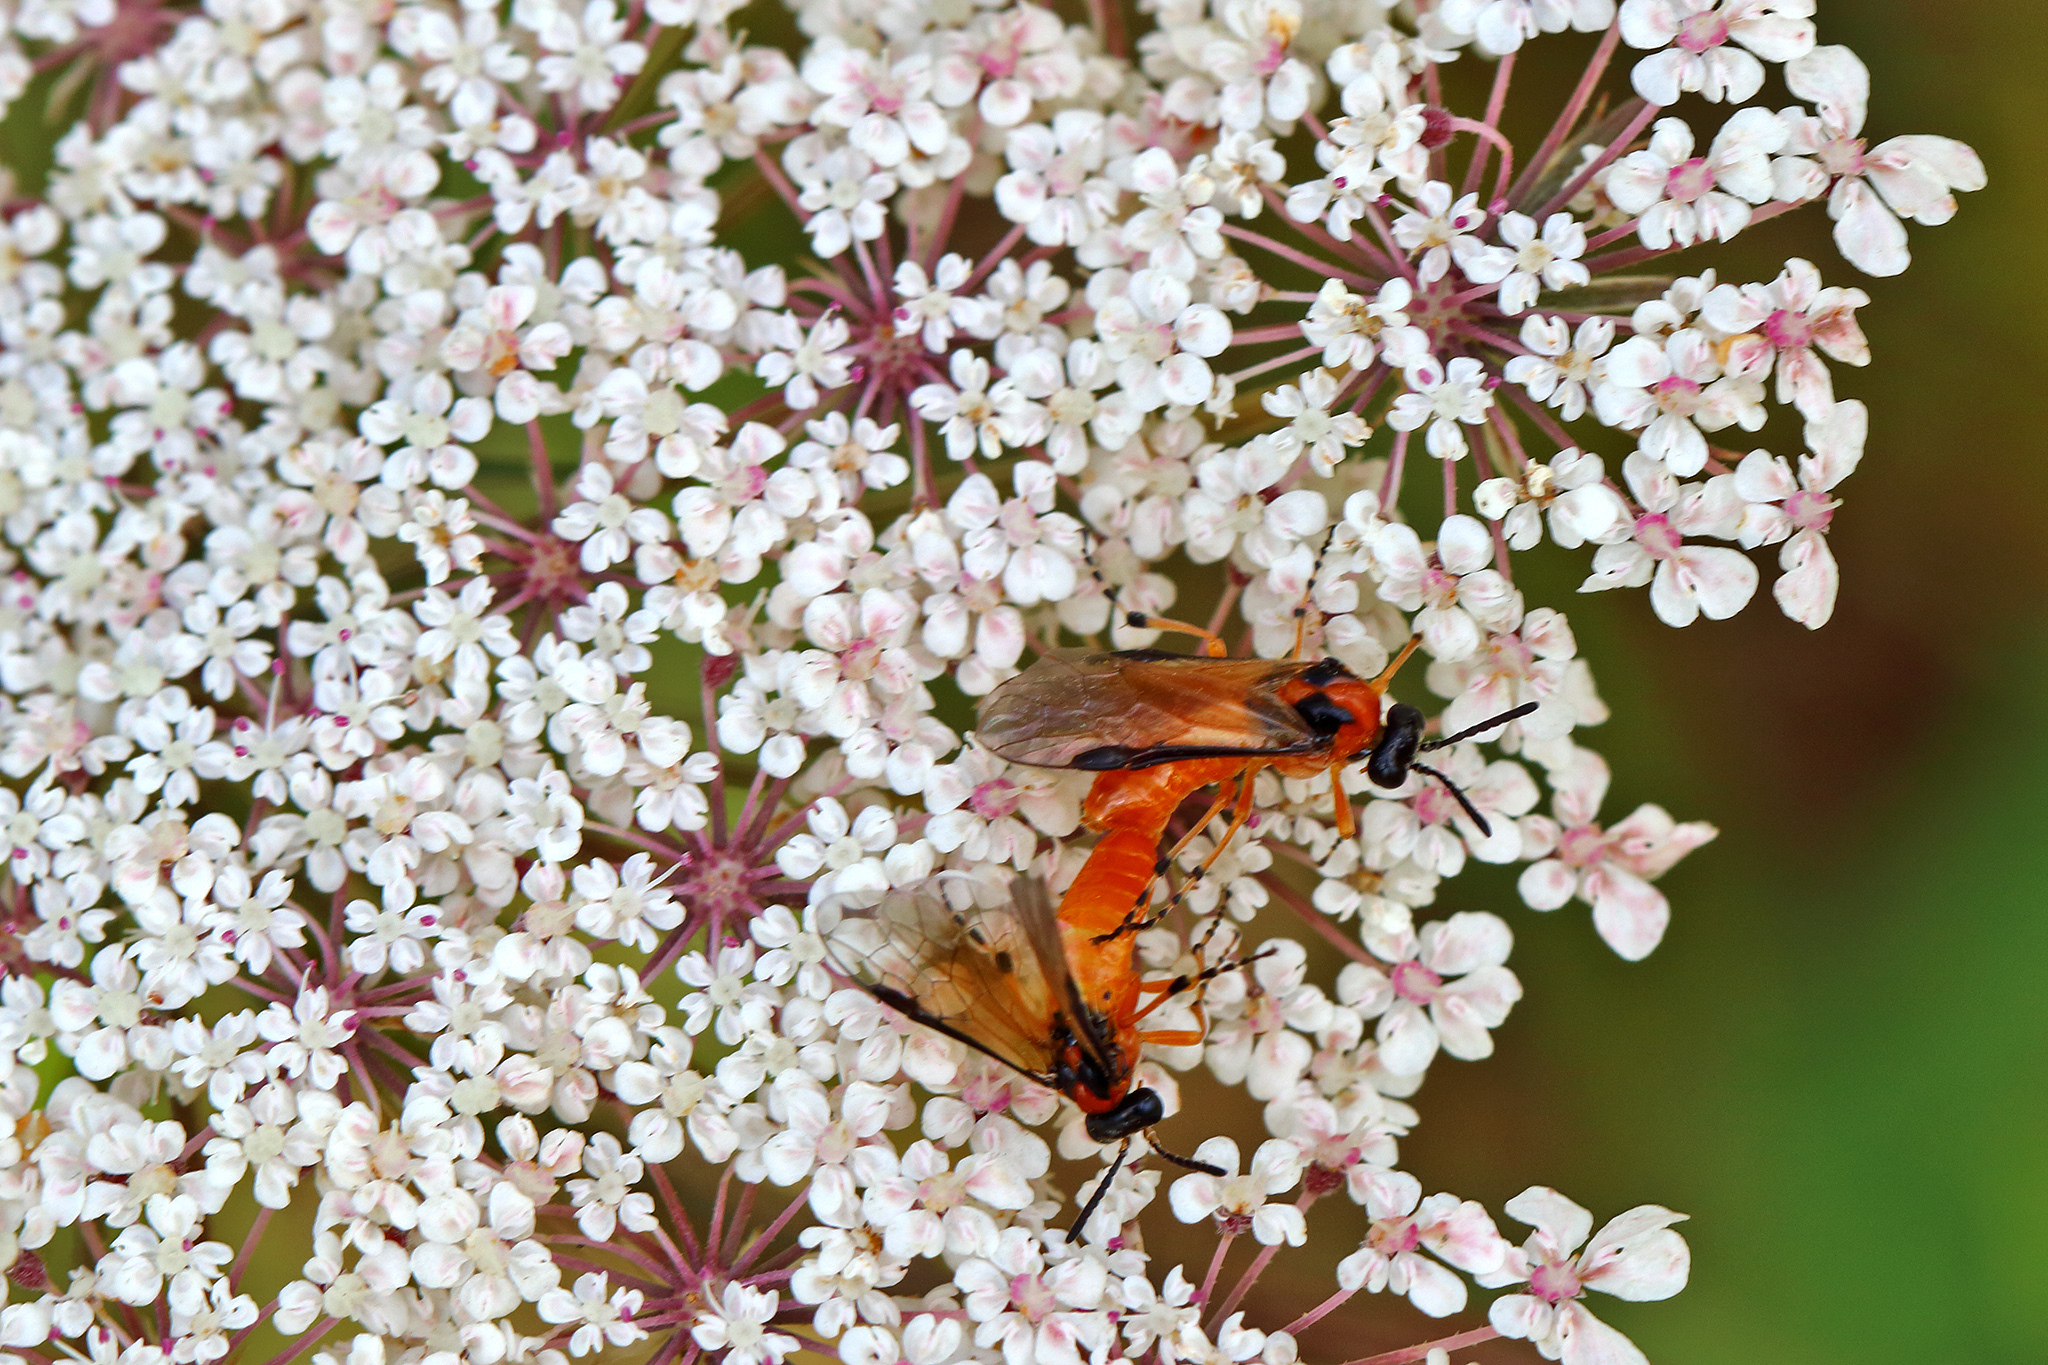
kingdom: Animalia
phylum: Arthropoda
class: Insecta
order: Hymenoptera
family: Tenthredinidae
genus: Athalia
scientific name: Athalia rosae
